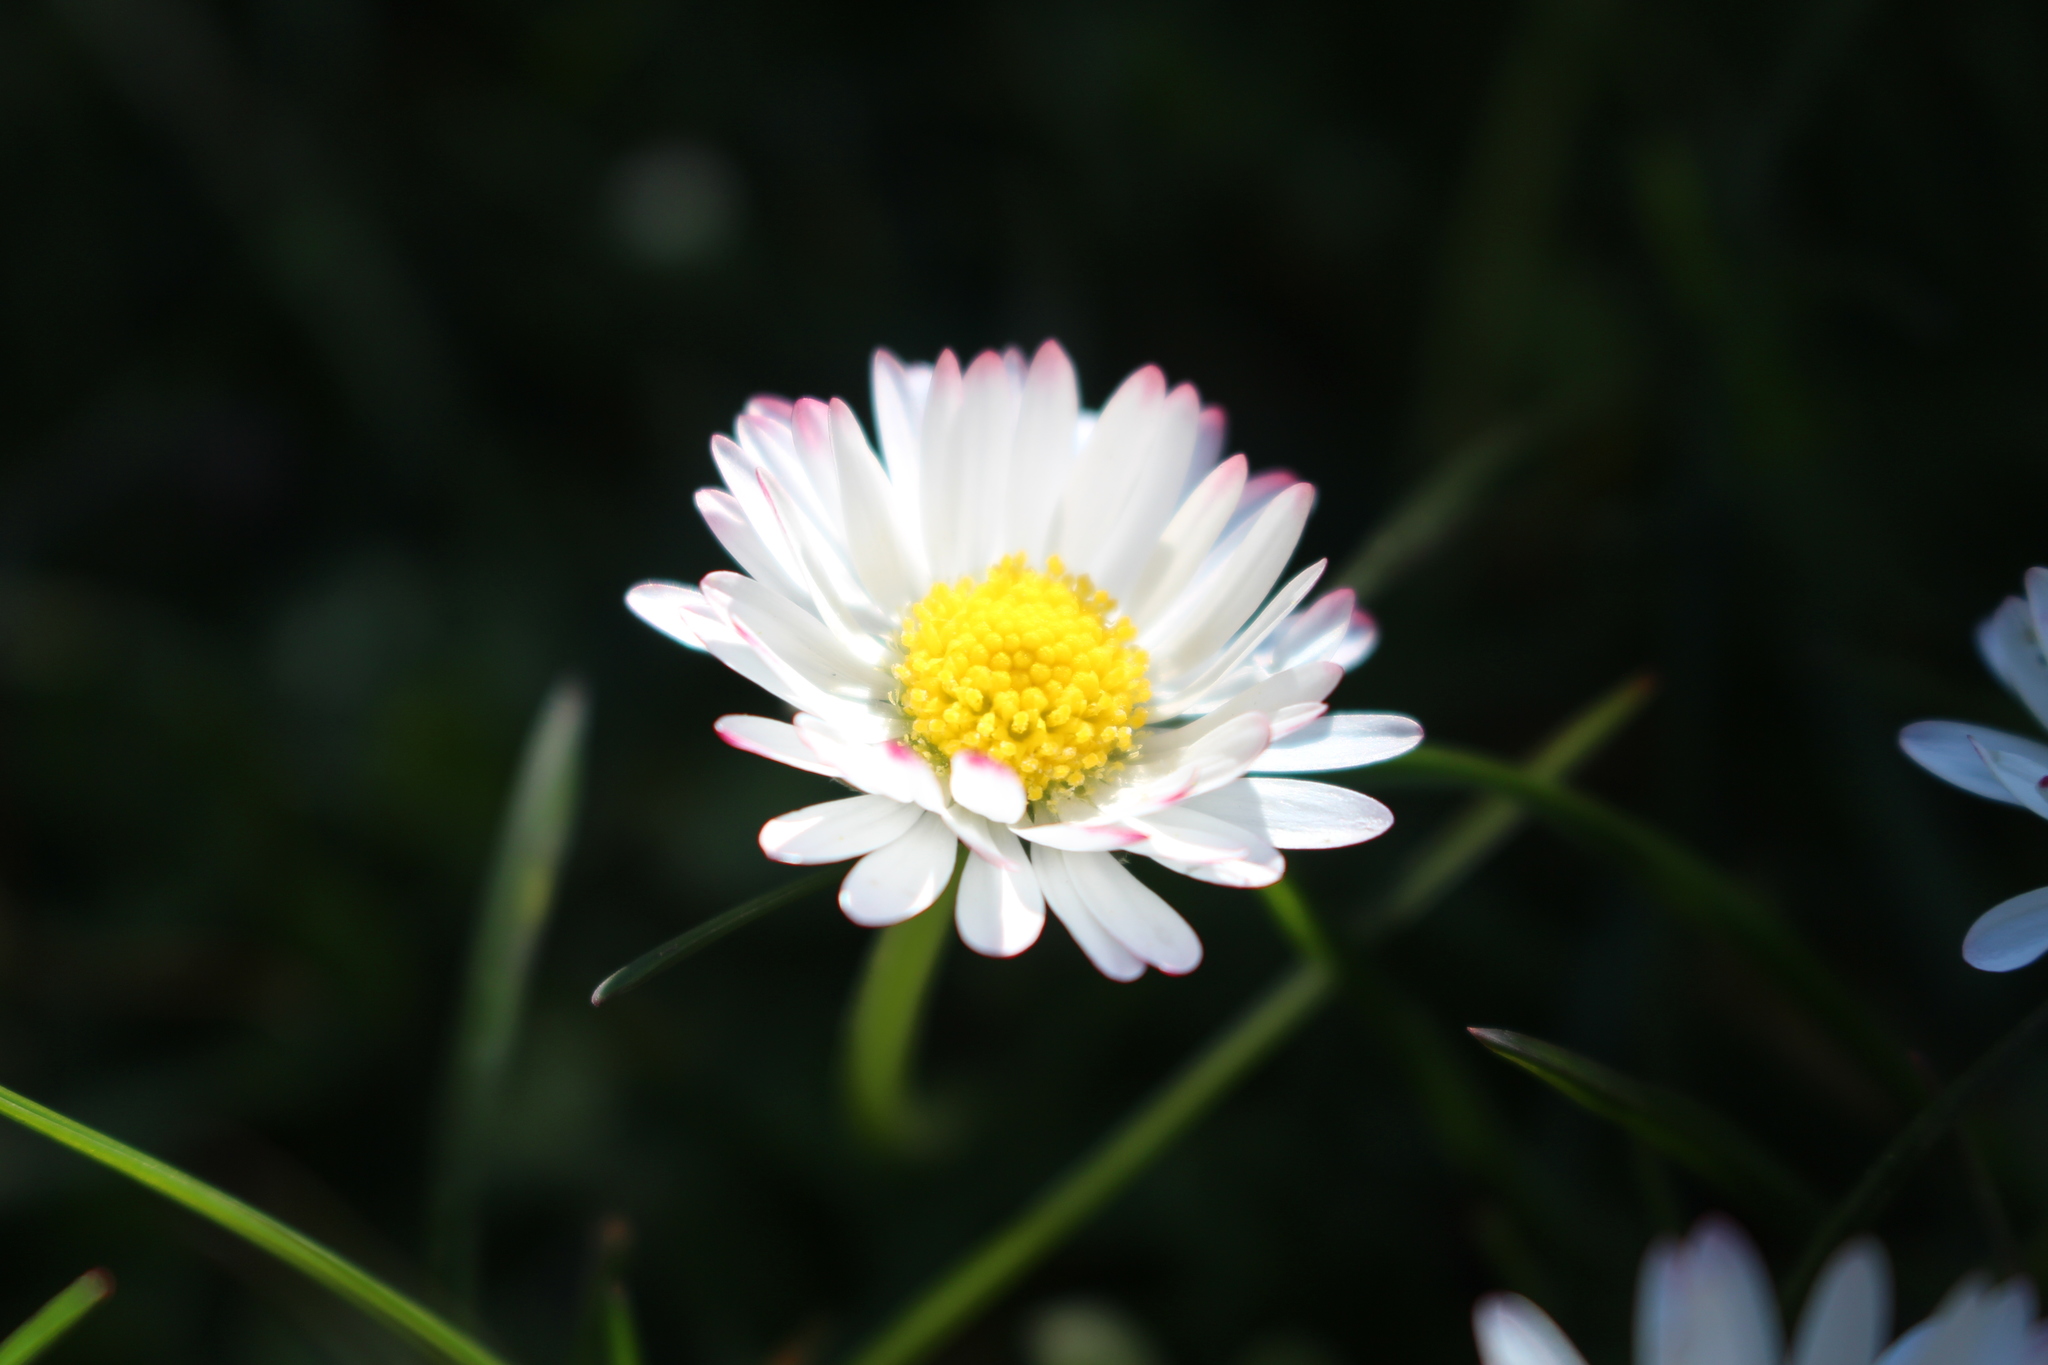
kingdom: Plantae
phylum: Tracheophyta
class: Magnoliopsida
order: Asterales
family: Asteraceae
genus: Bellis
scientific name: Bellis perennis
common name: Lawndaisy
